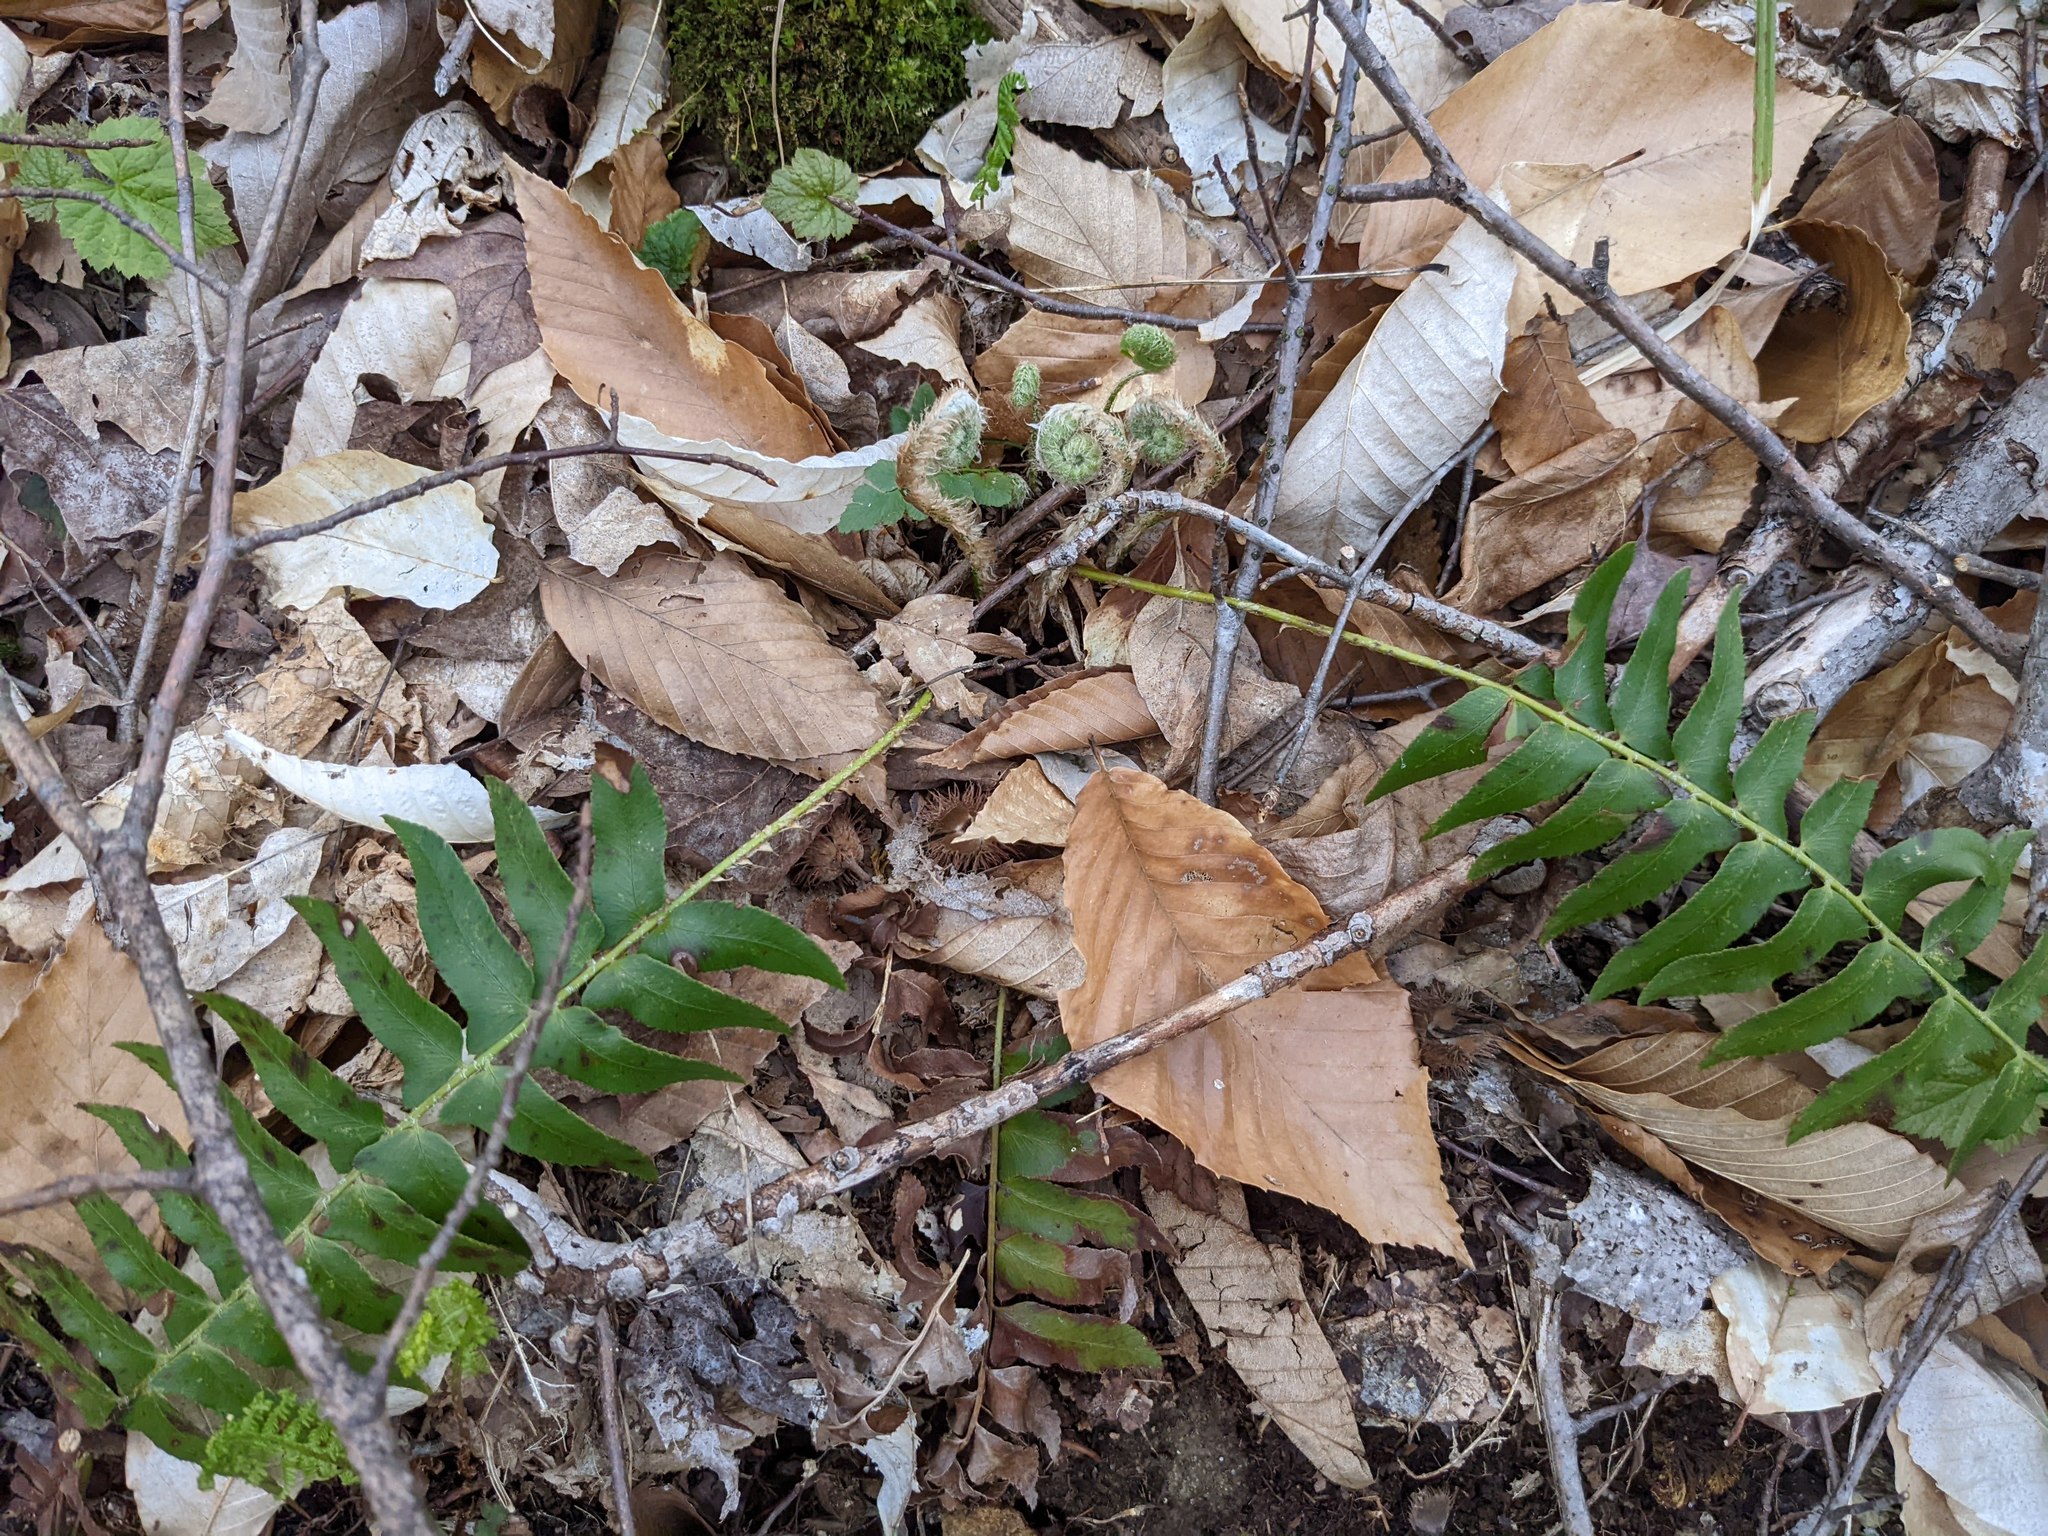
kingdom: Plantae
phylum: Tracheophyta
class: Magnoliopsida
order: Fagales
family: Fagaceae
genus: Fagus
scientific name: Fagus grandifolia
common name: American beech
